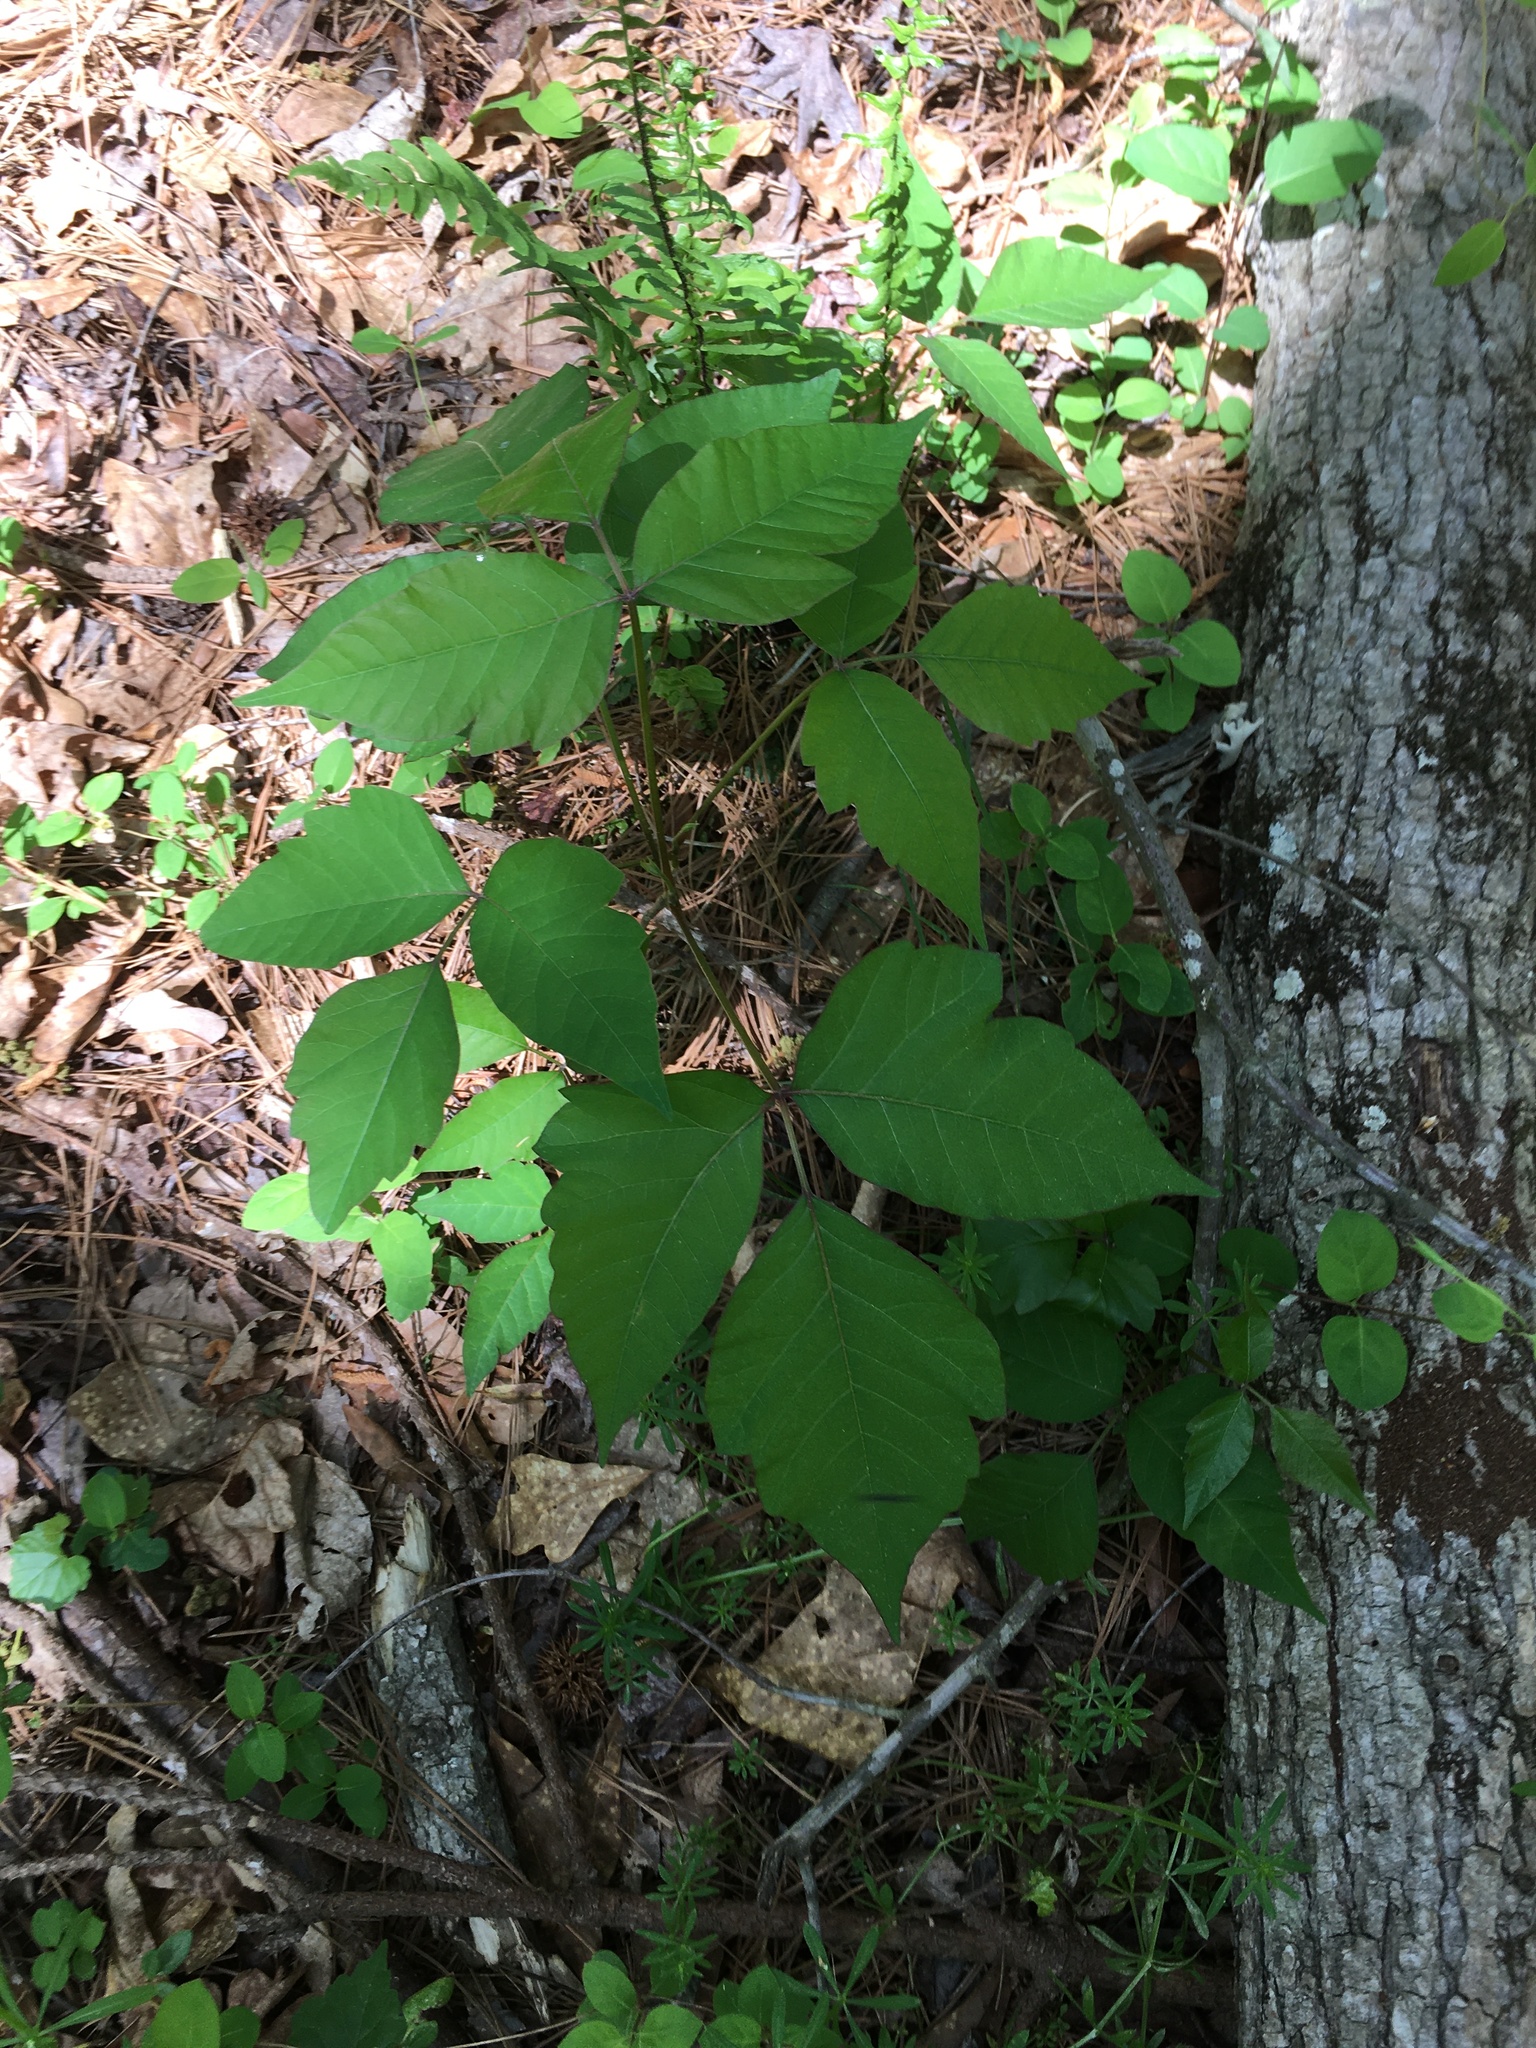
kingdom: Plantae
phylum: Tracheophyta
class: Magnoliopsida
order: Sapindales
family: Anacardiaceae
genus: Toxicodendron
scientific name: Toxicodendron radicans
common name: Poison ivy
